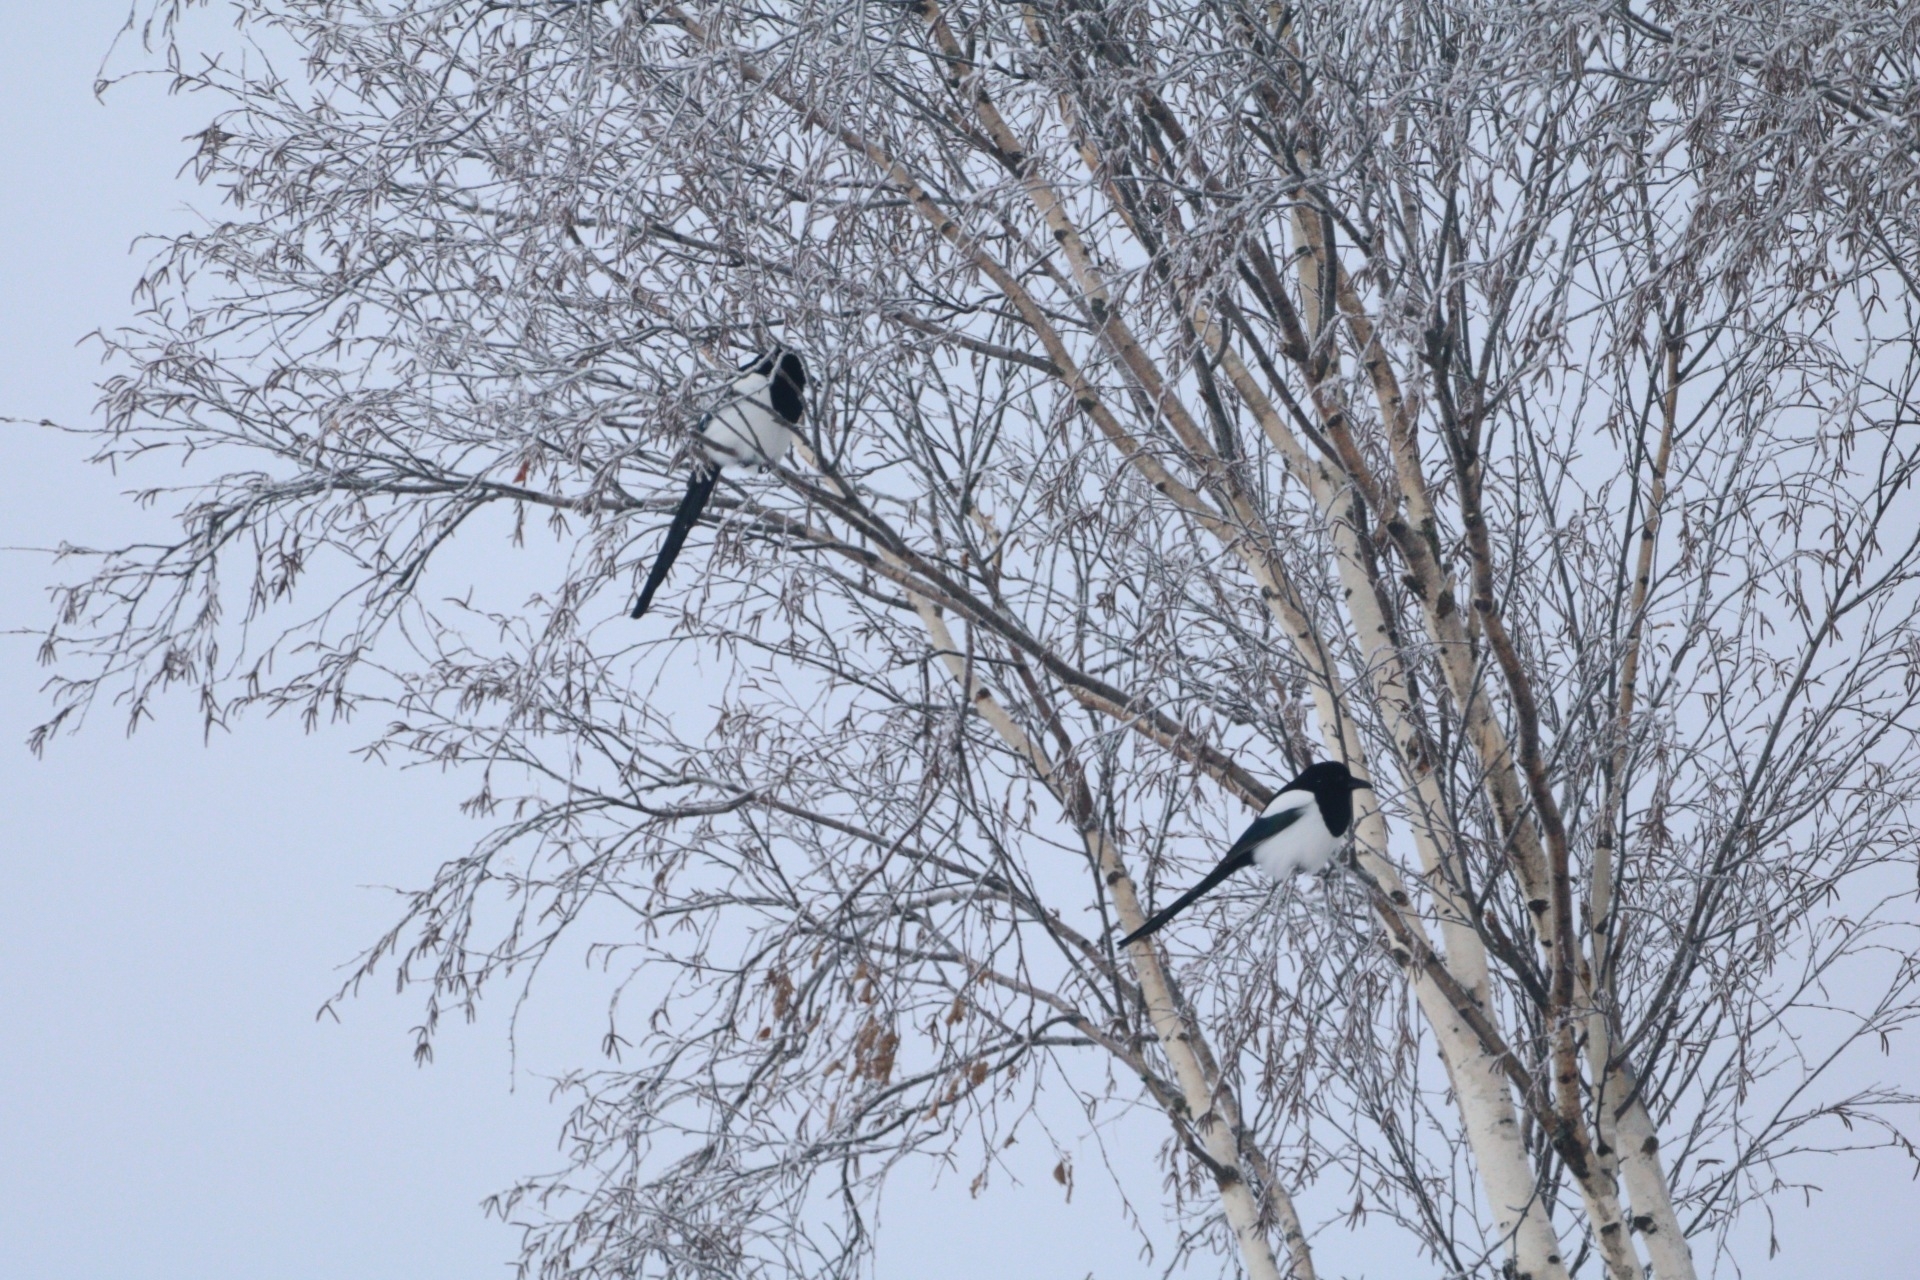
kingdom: Animalia
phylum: Chordata
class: Aves
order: Passeriformes
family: Corvidae
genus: Pica
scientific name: Pica pica
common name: Eurasian magpie
